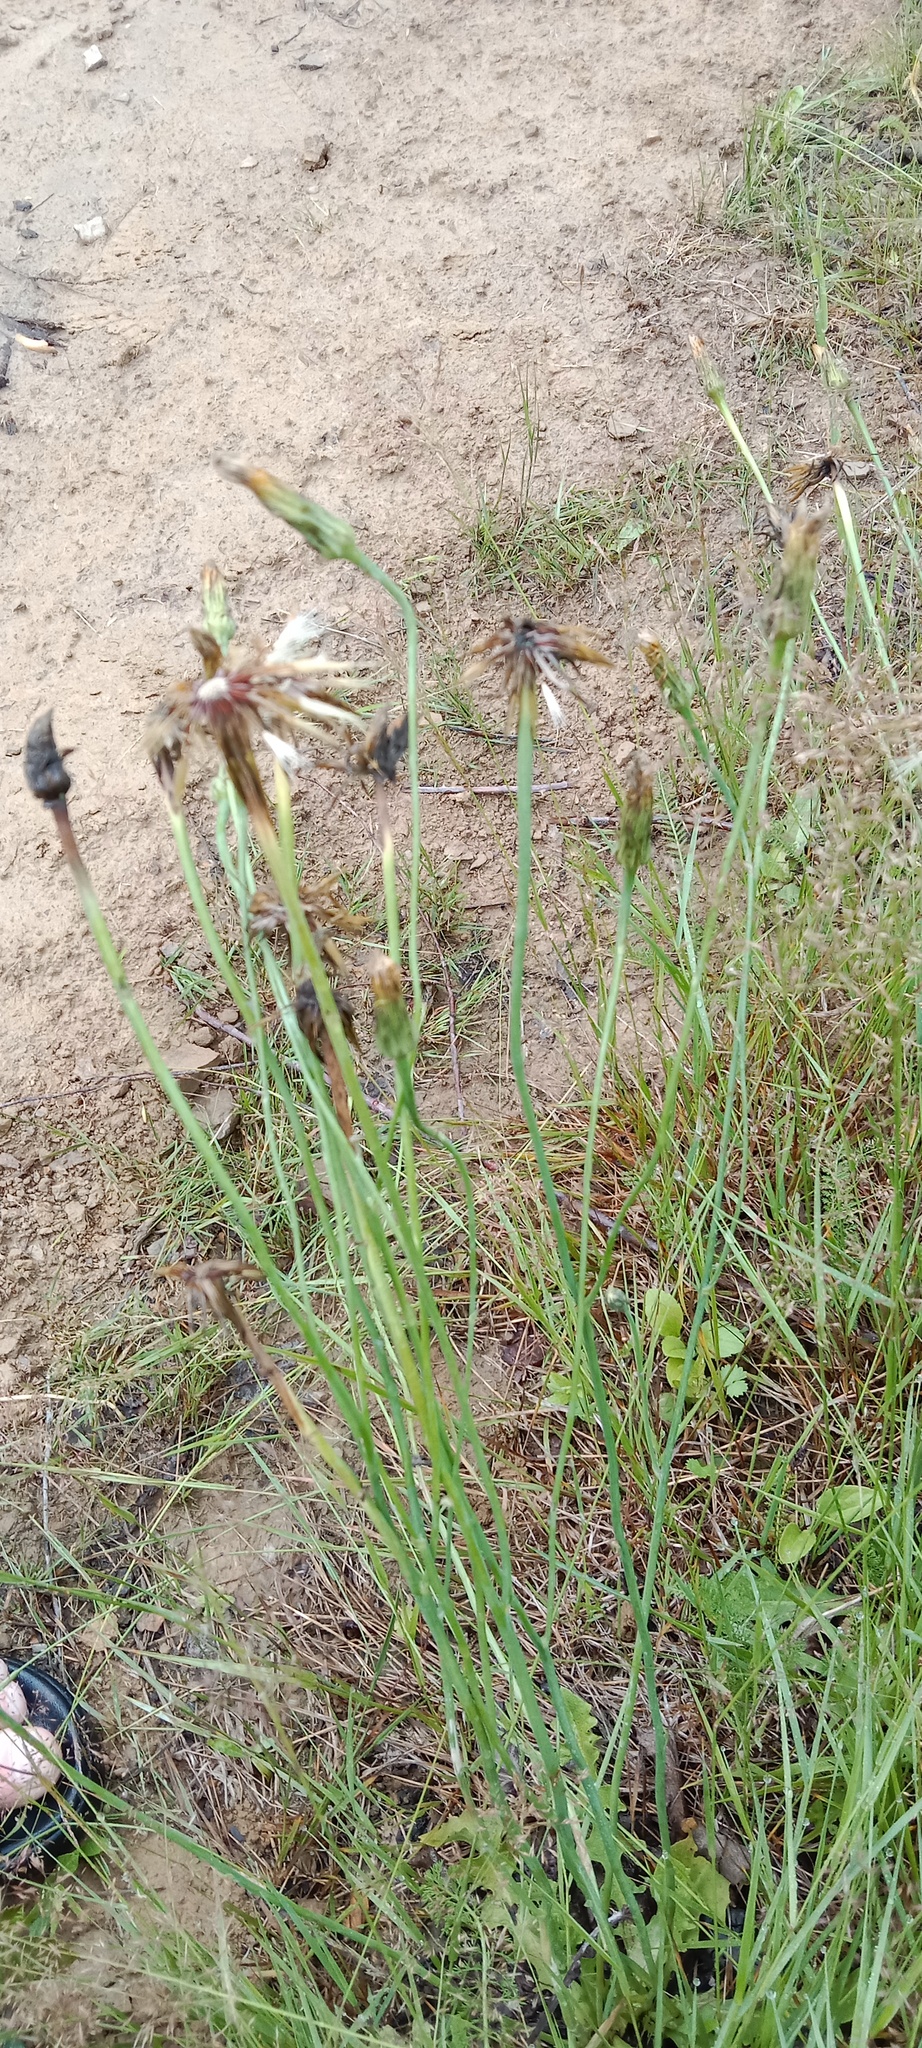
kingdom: Plantae
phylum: Tracheophyta
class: Magnoliopsida
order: Asterales
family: Asteraceae
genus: Hypochaeris
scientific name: Hypochaeris radicata
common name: Flatweed
